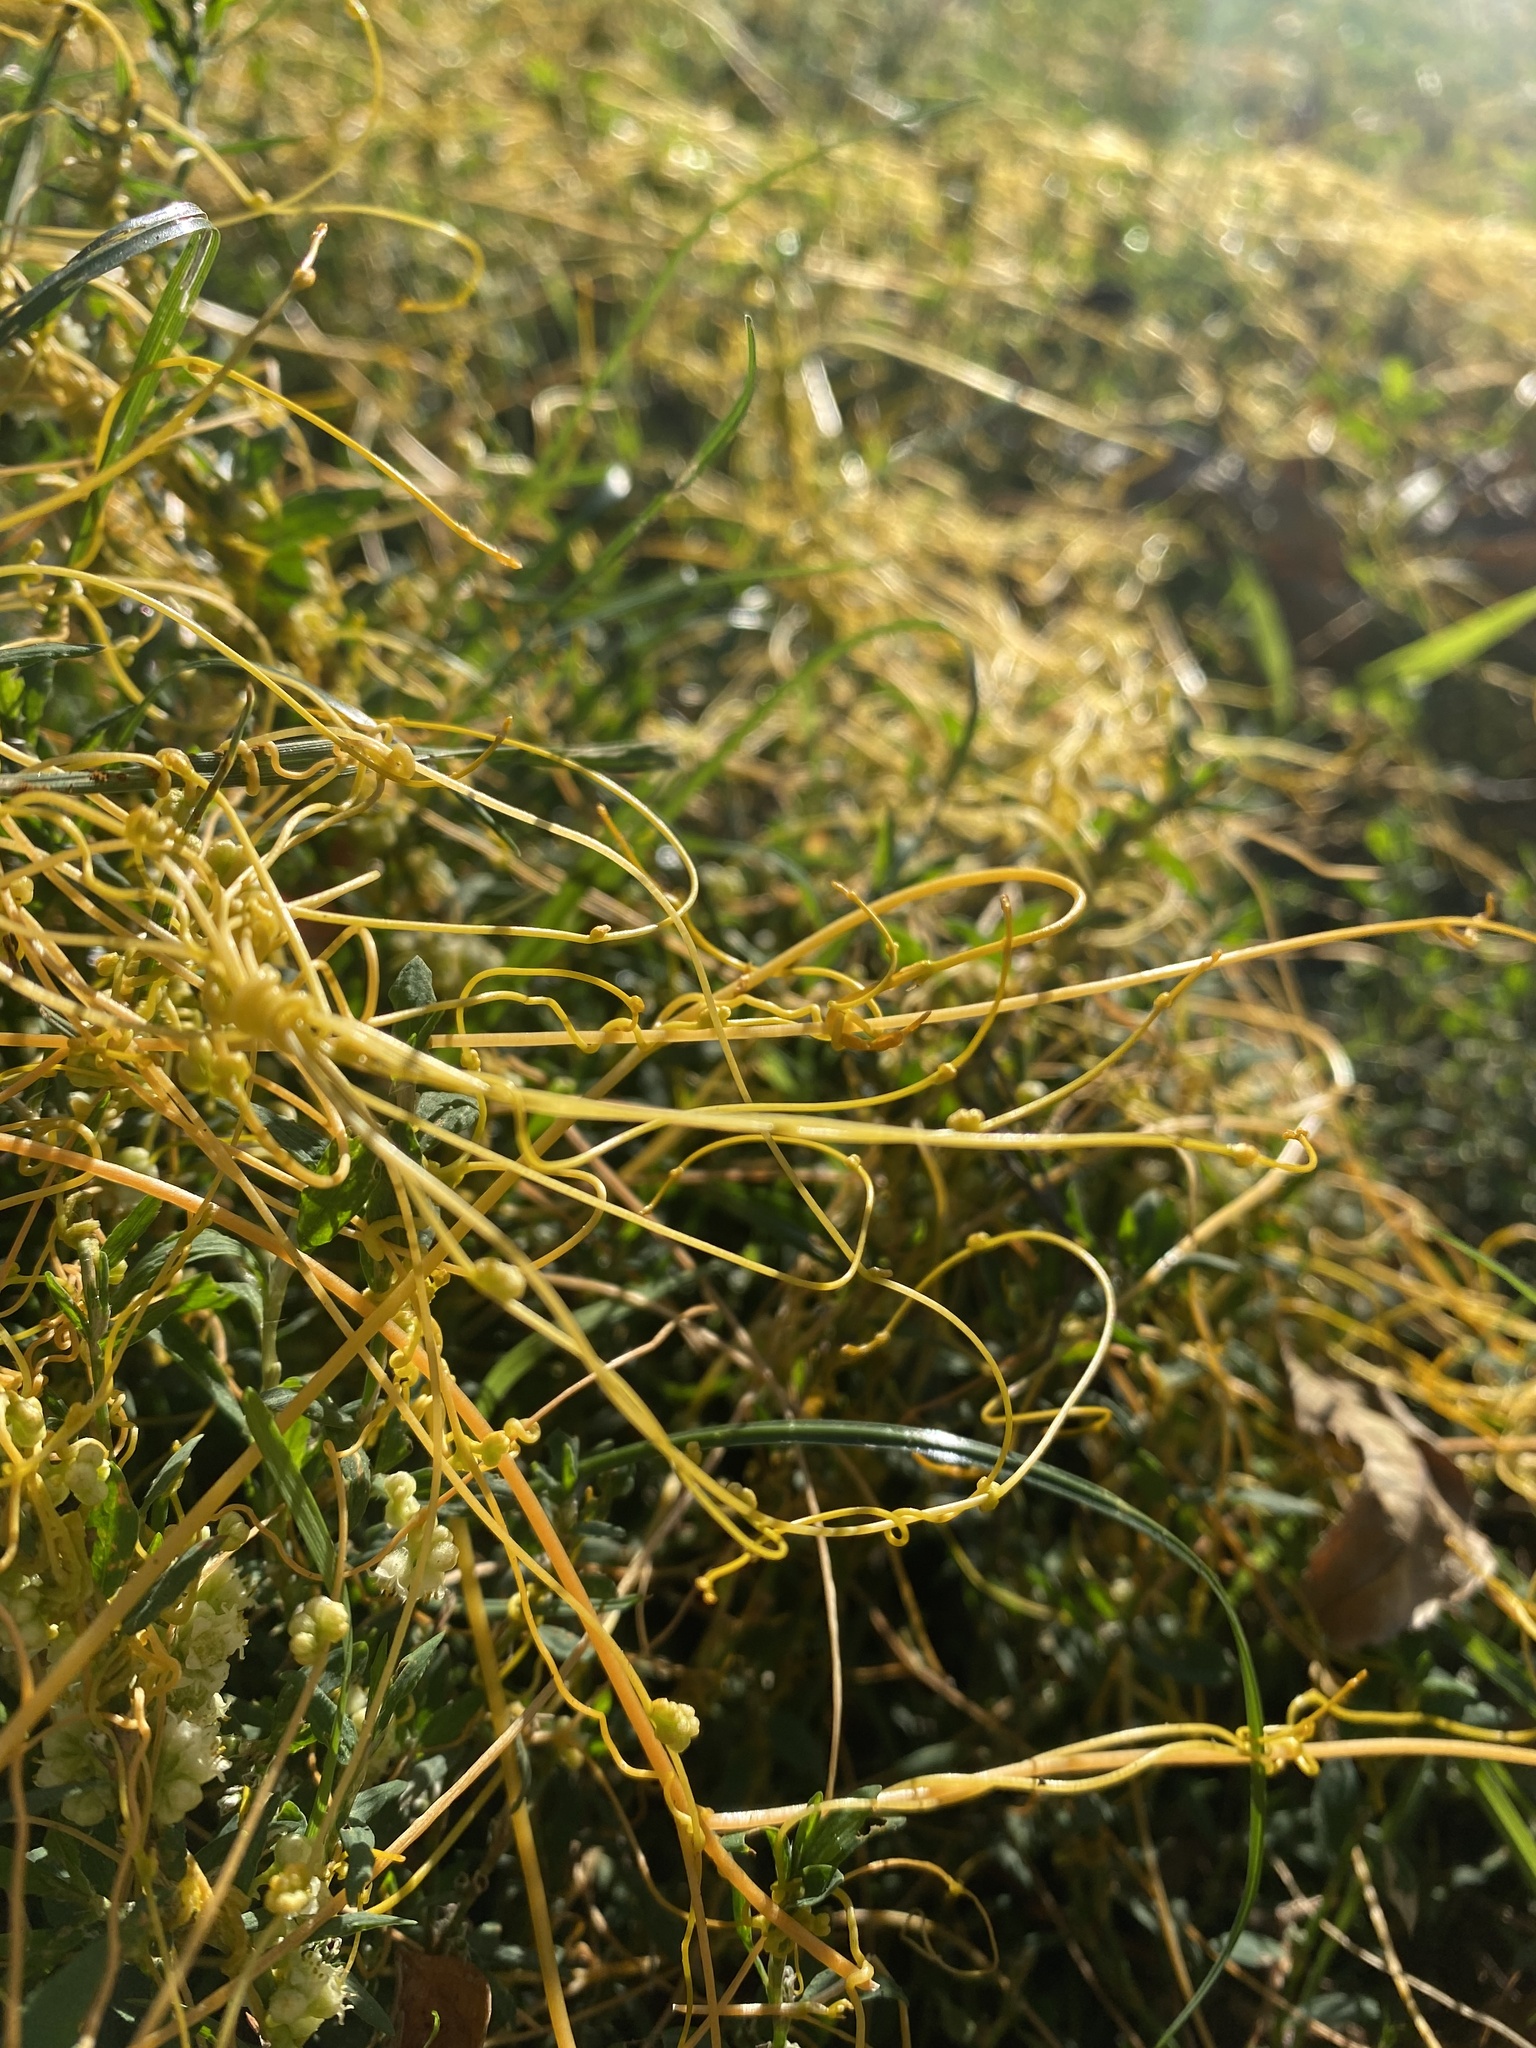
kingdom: Plantae
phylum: Tracheophyta
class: Magnoliopsida
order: Solanales
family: Convolvulaceae
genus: Cuscuta
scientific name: Cuscuta campestris
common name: Yellow dodder
